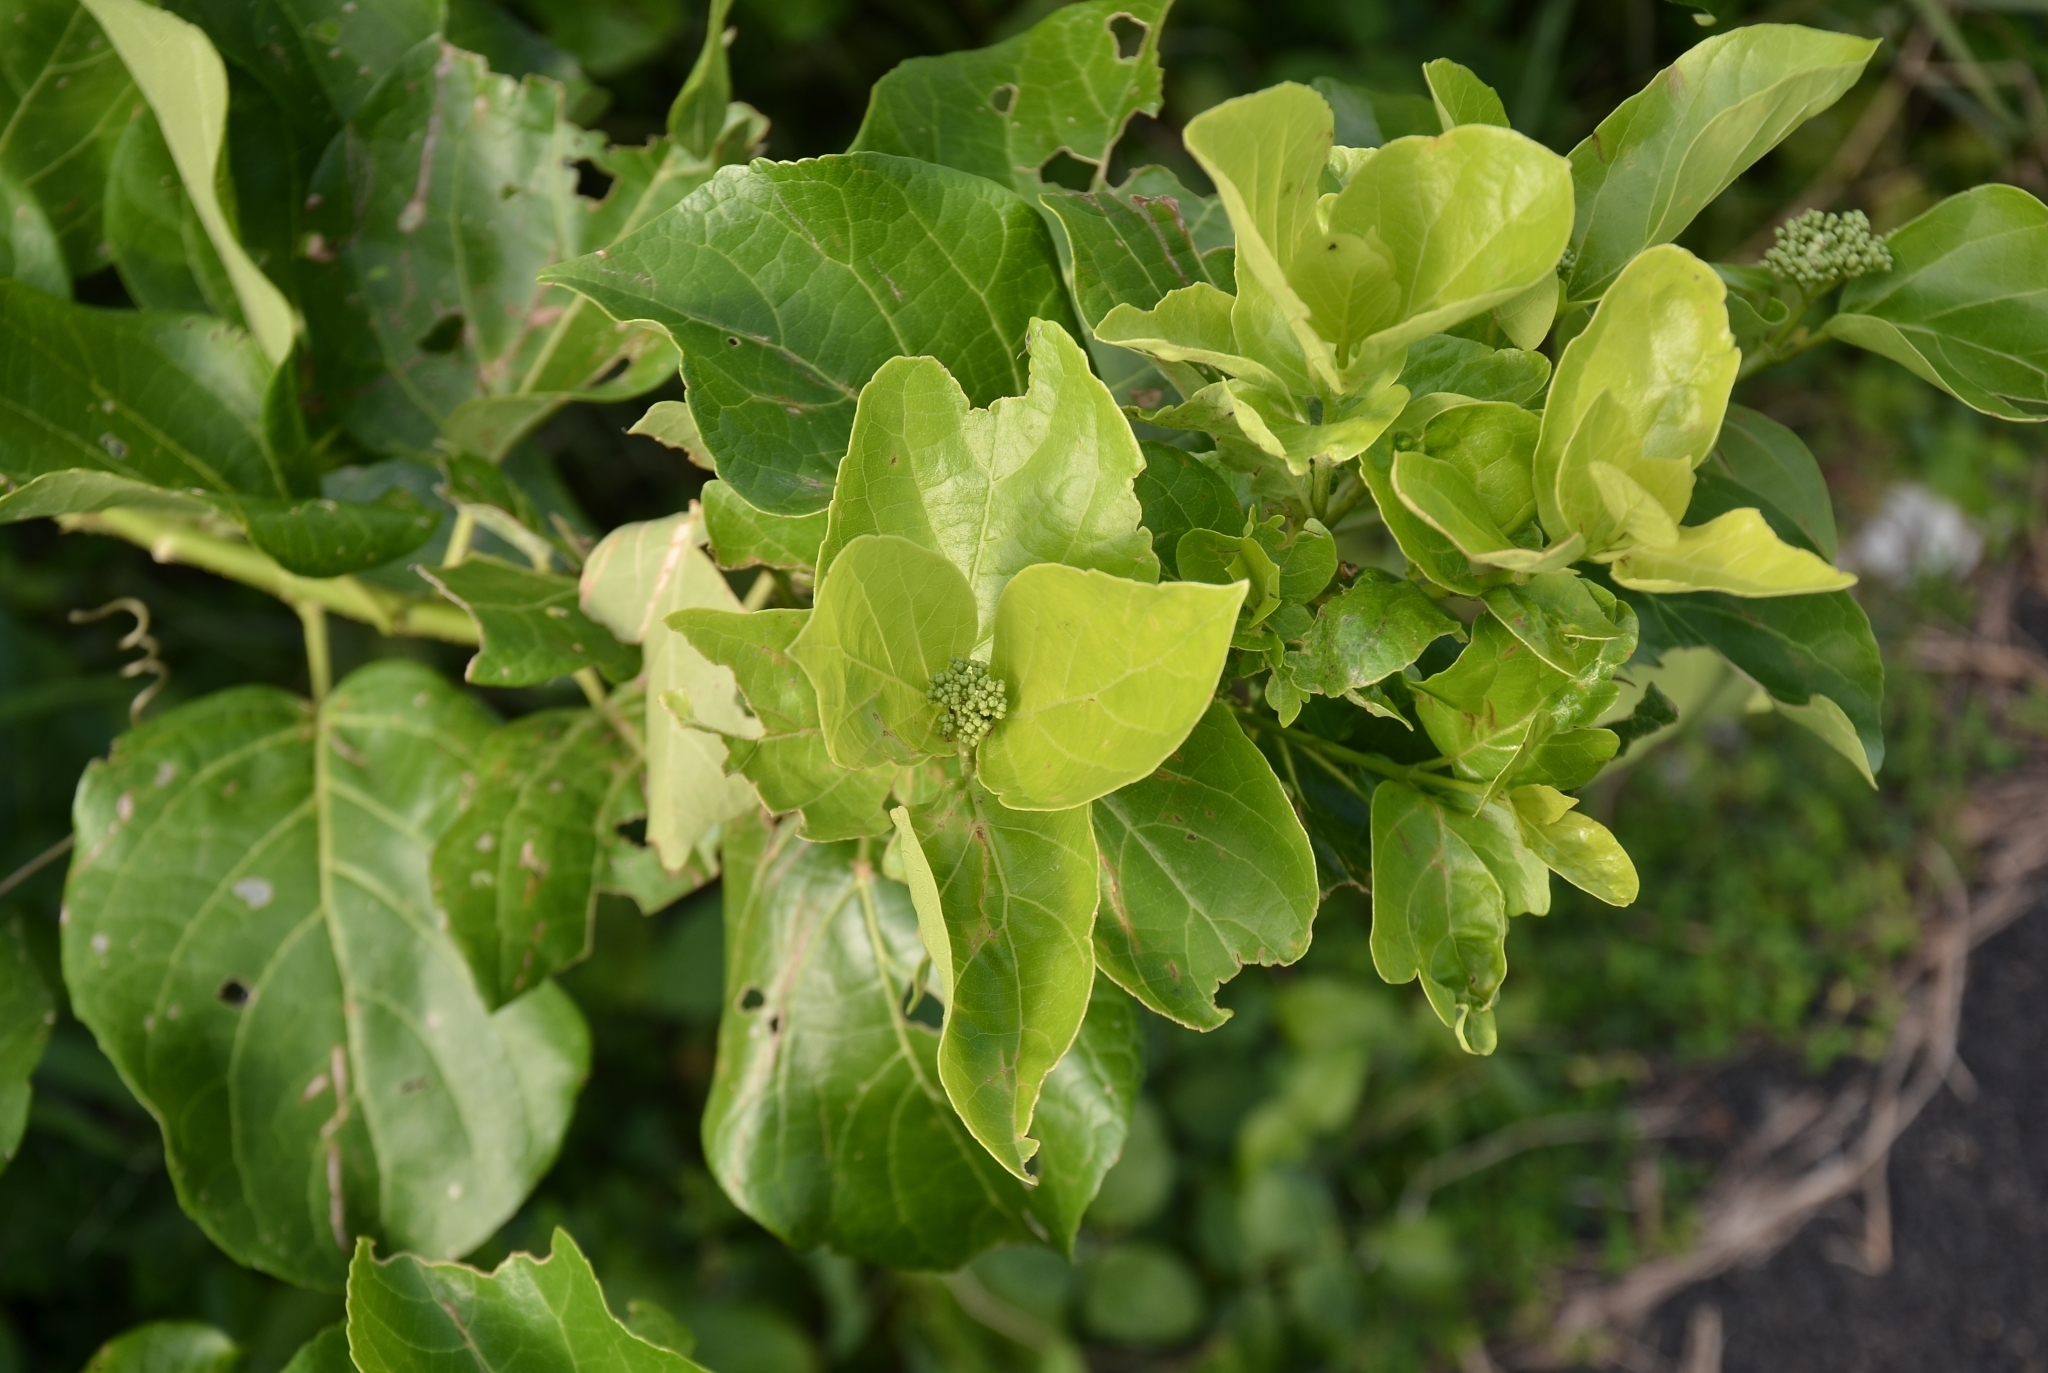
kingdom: Plantae
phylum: Tracheophyta
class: Magnoliopsida
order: Lamiales
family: Lamiaceae
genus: Premna
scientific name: Premna serratifolia
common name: Bastard guelder
